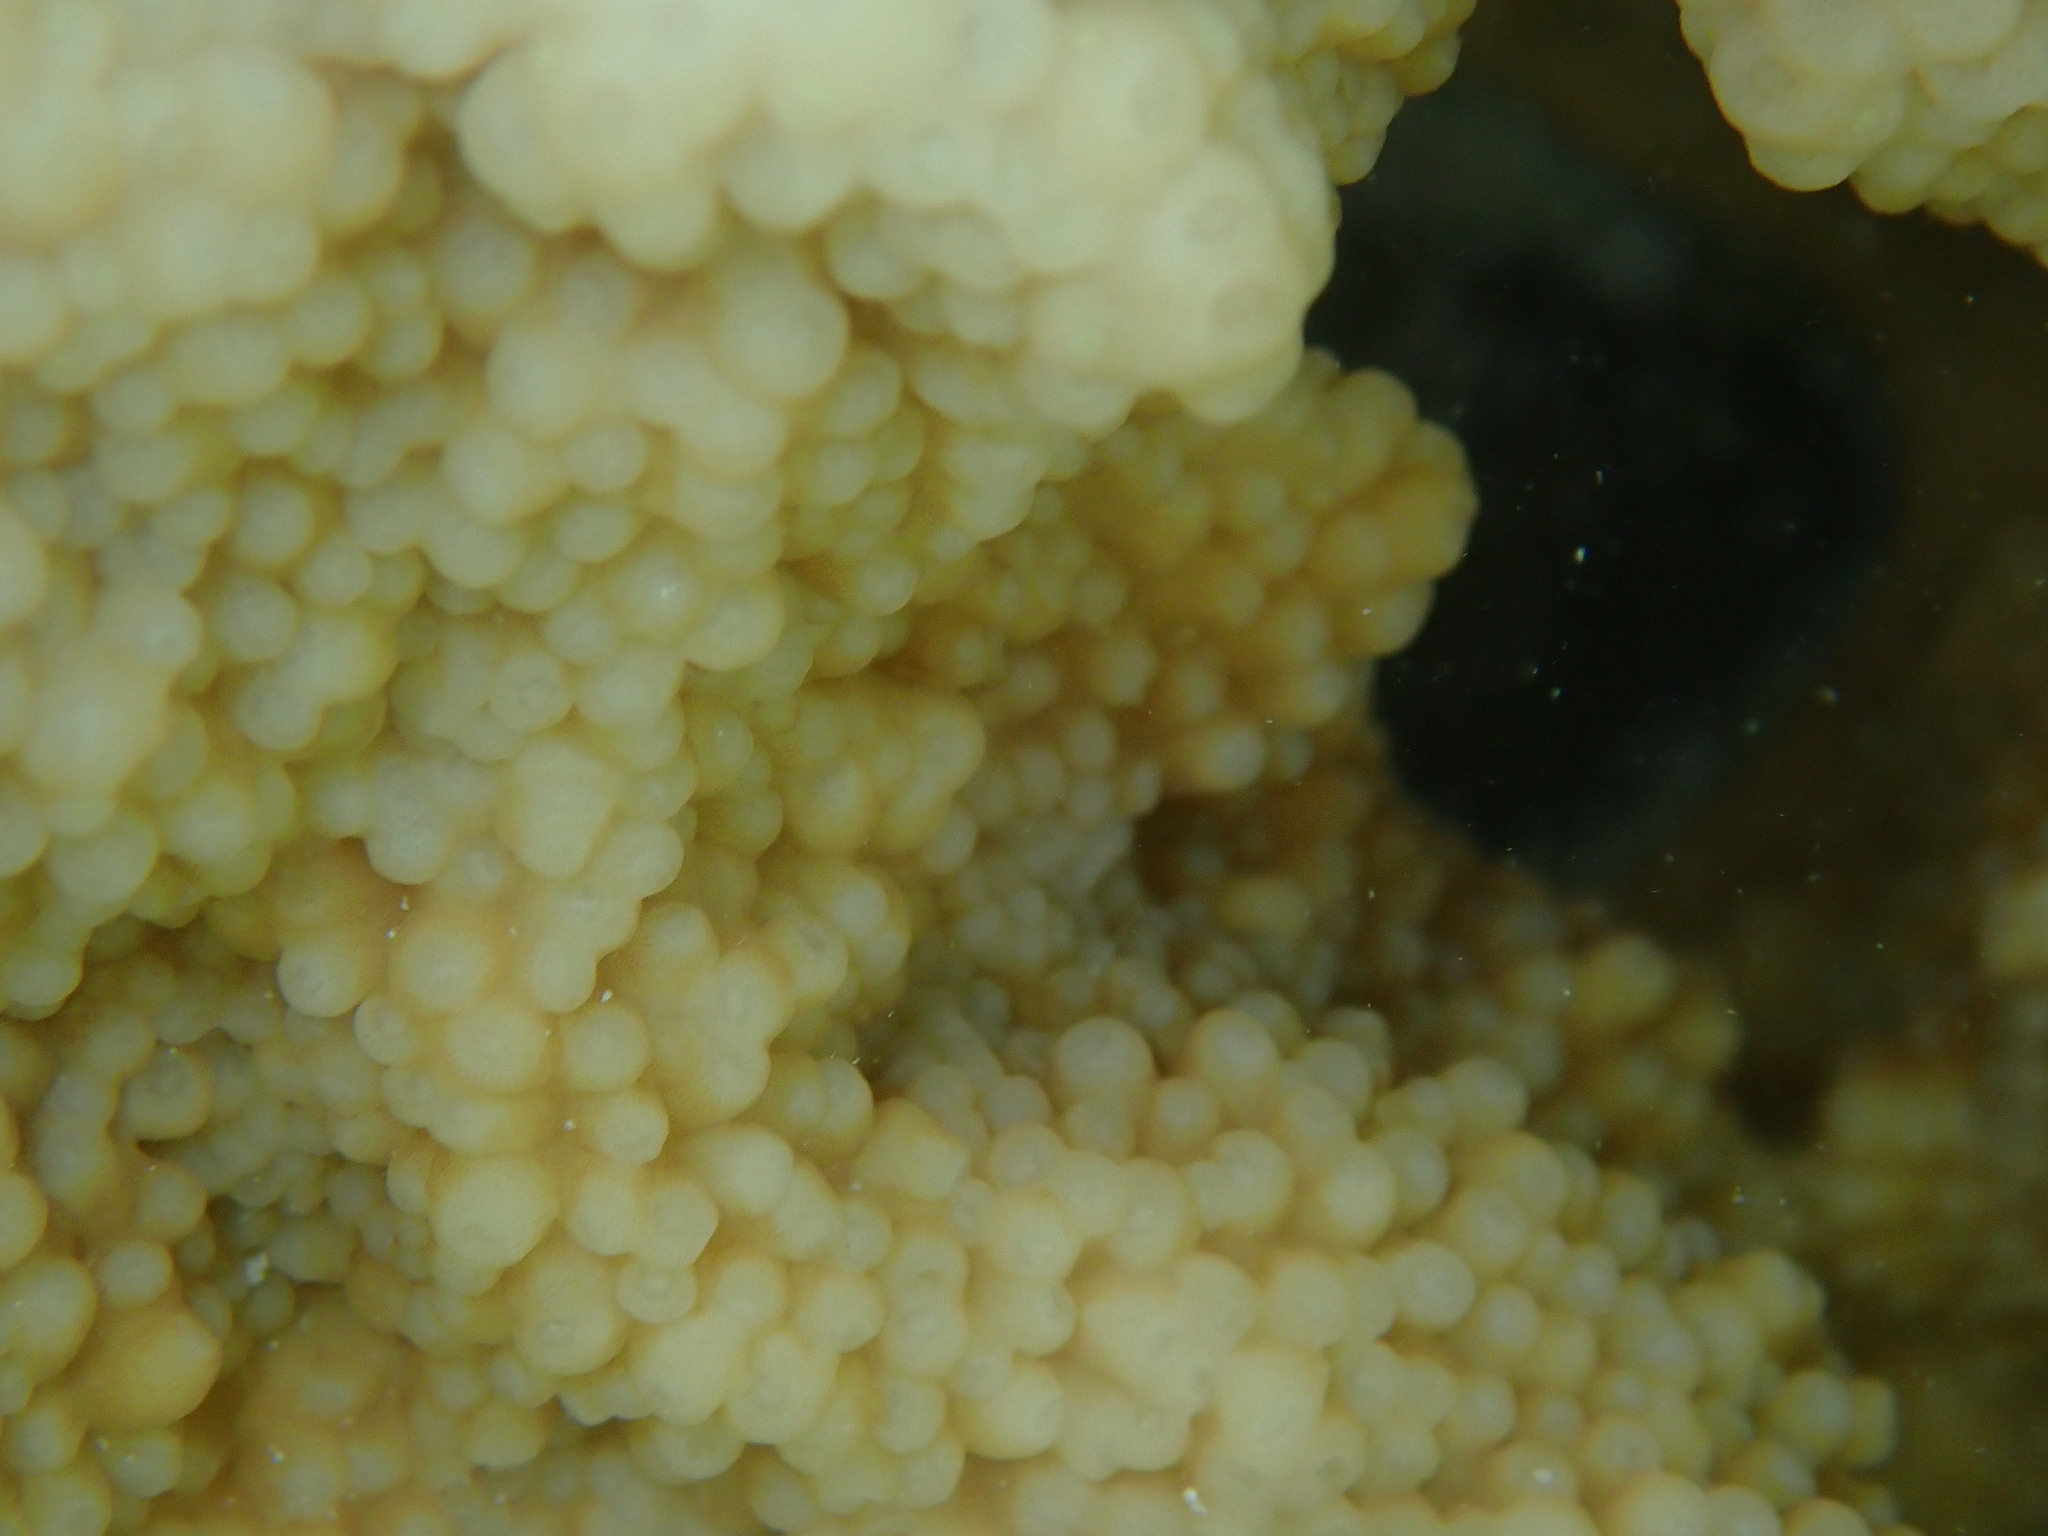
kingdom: Animalia
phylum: Cnidaria
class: Anthozoa
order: Scleractinia
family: Acroporidae
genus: Isopora
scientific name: Isopora palifera
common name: Catch bowl coral
